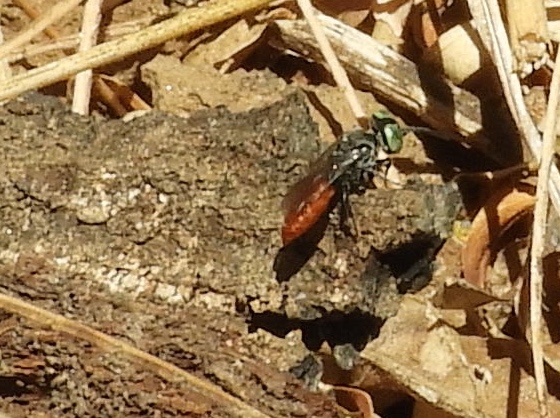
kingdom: Animalia
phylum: Arthropoda
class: Insecta
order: Hymenoptera
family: Crabronidae
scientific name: Crabronidae
